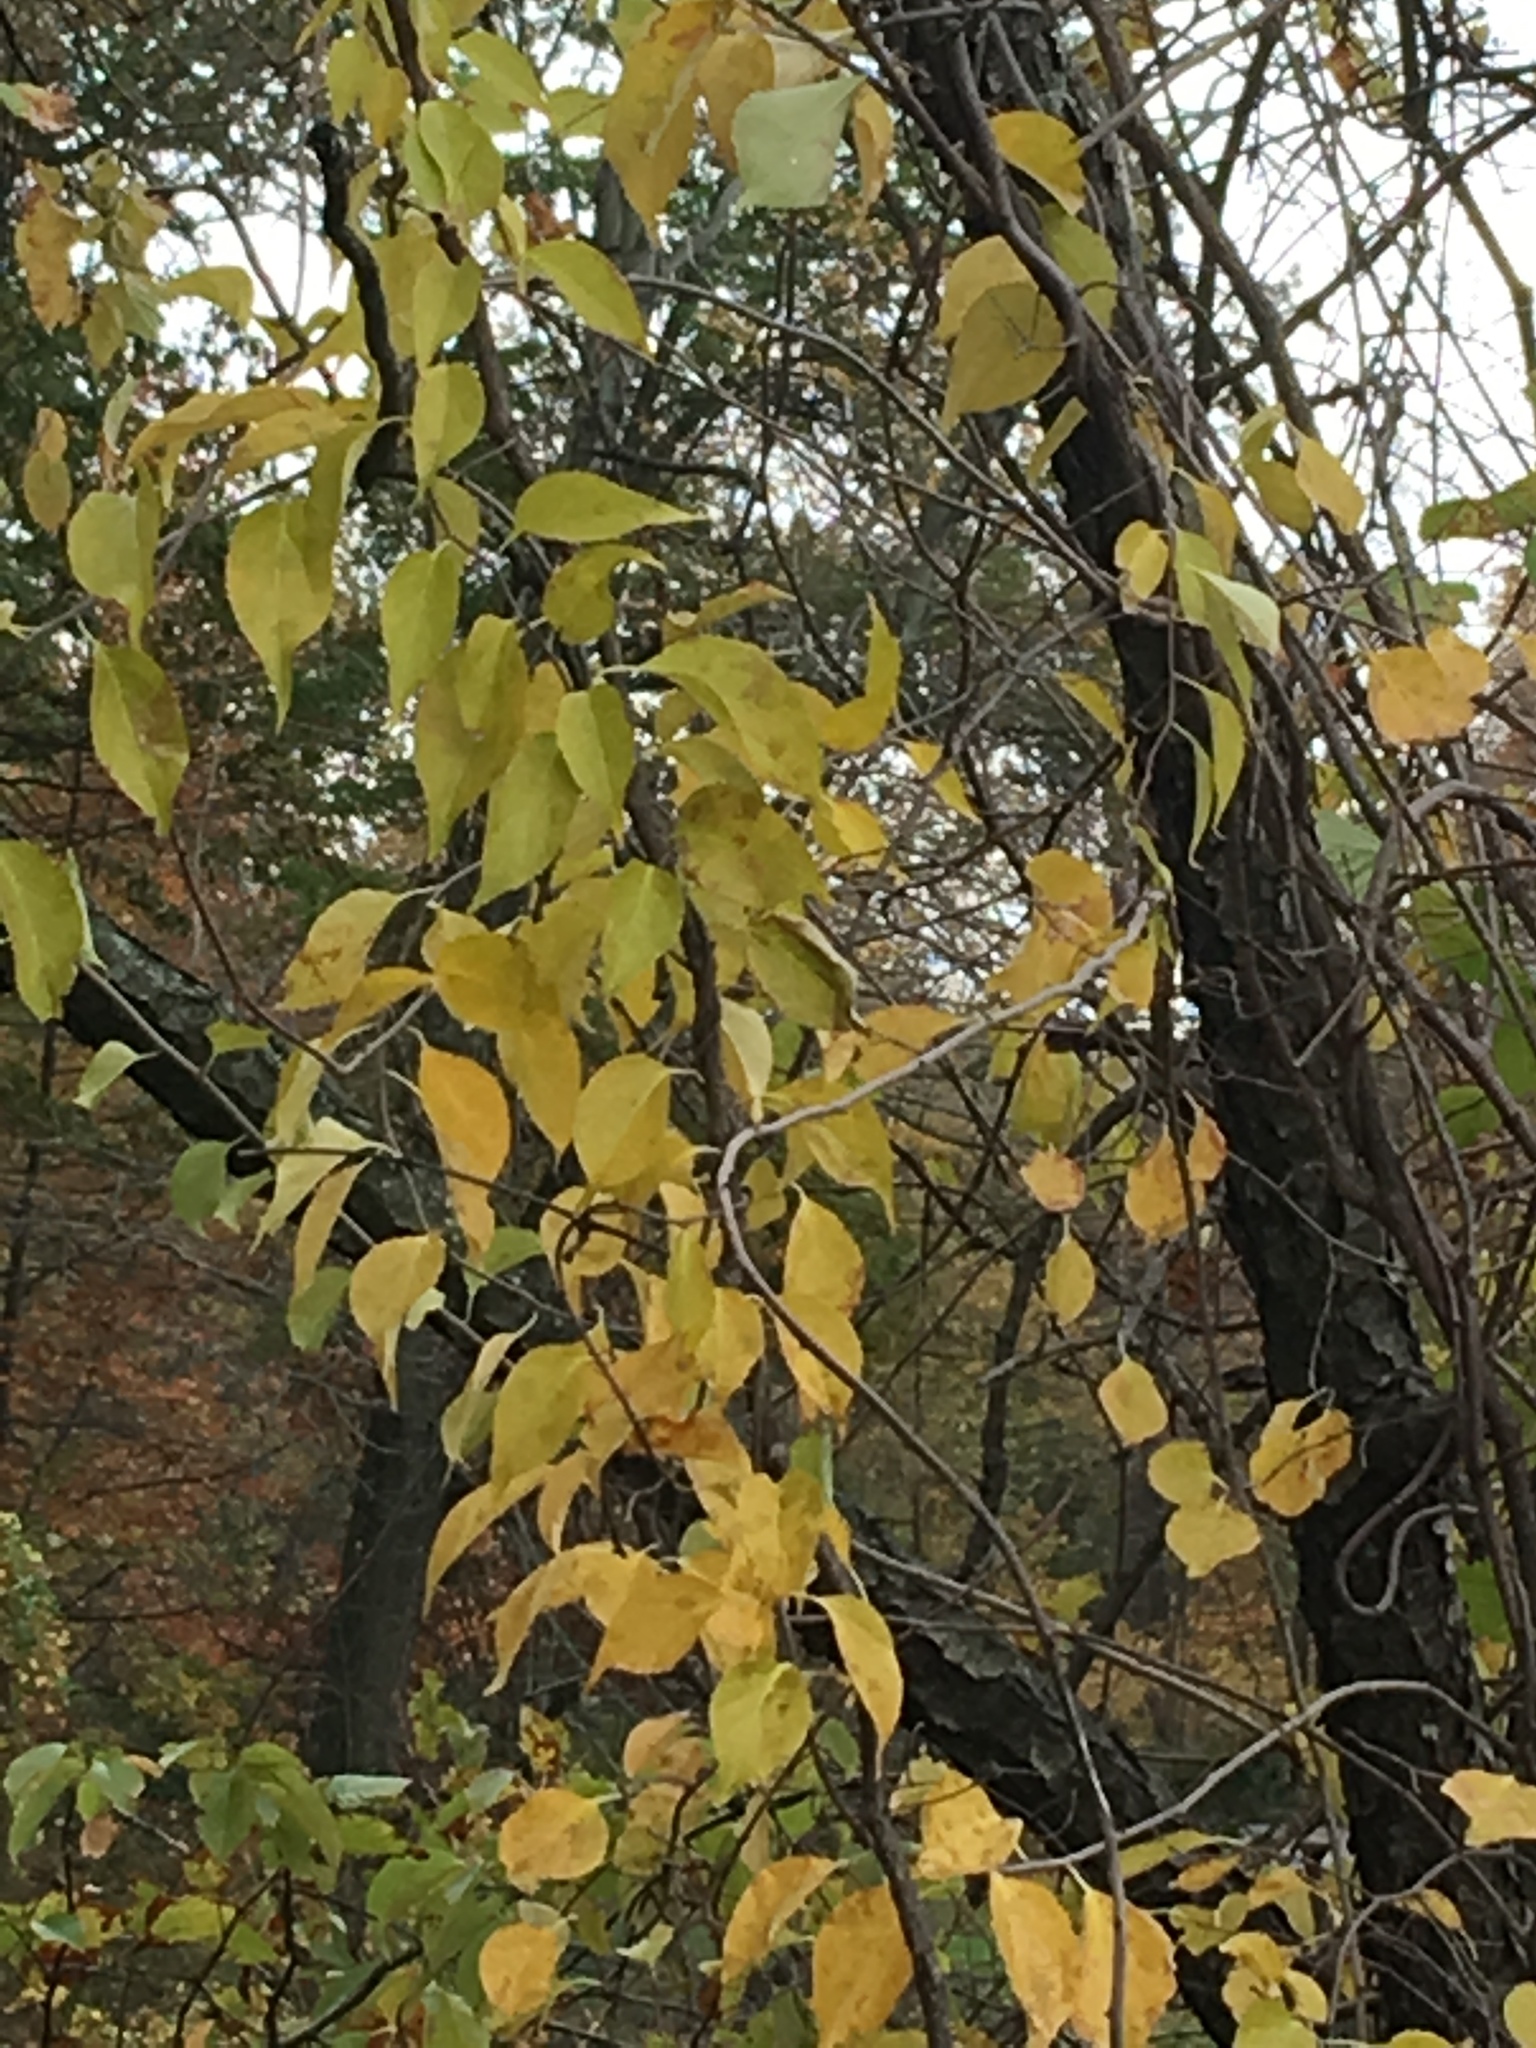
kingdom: Plantae
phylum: Tracheophyta
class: Magnoliopsida
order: Celastrales
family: Celastraceae
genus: Celastrus
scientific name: Celastrus orbiculatus
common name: Oriental bittersweet
